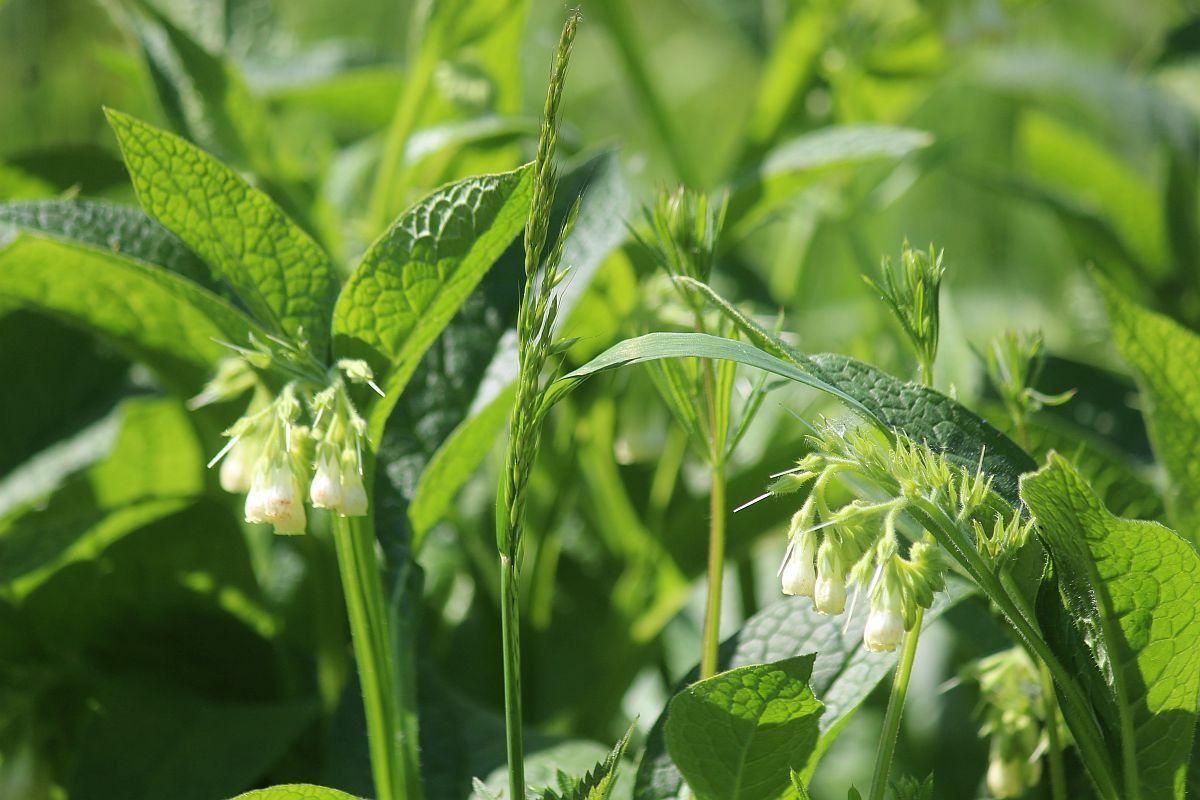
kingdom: Plantae
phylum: Tracheophyta
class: Magnoliopsida
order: Boraginales
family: Boraginaceae
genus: Symphytum
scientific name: Symphytum officinale
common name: Common comfrey
